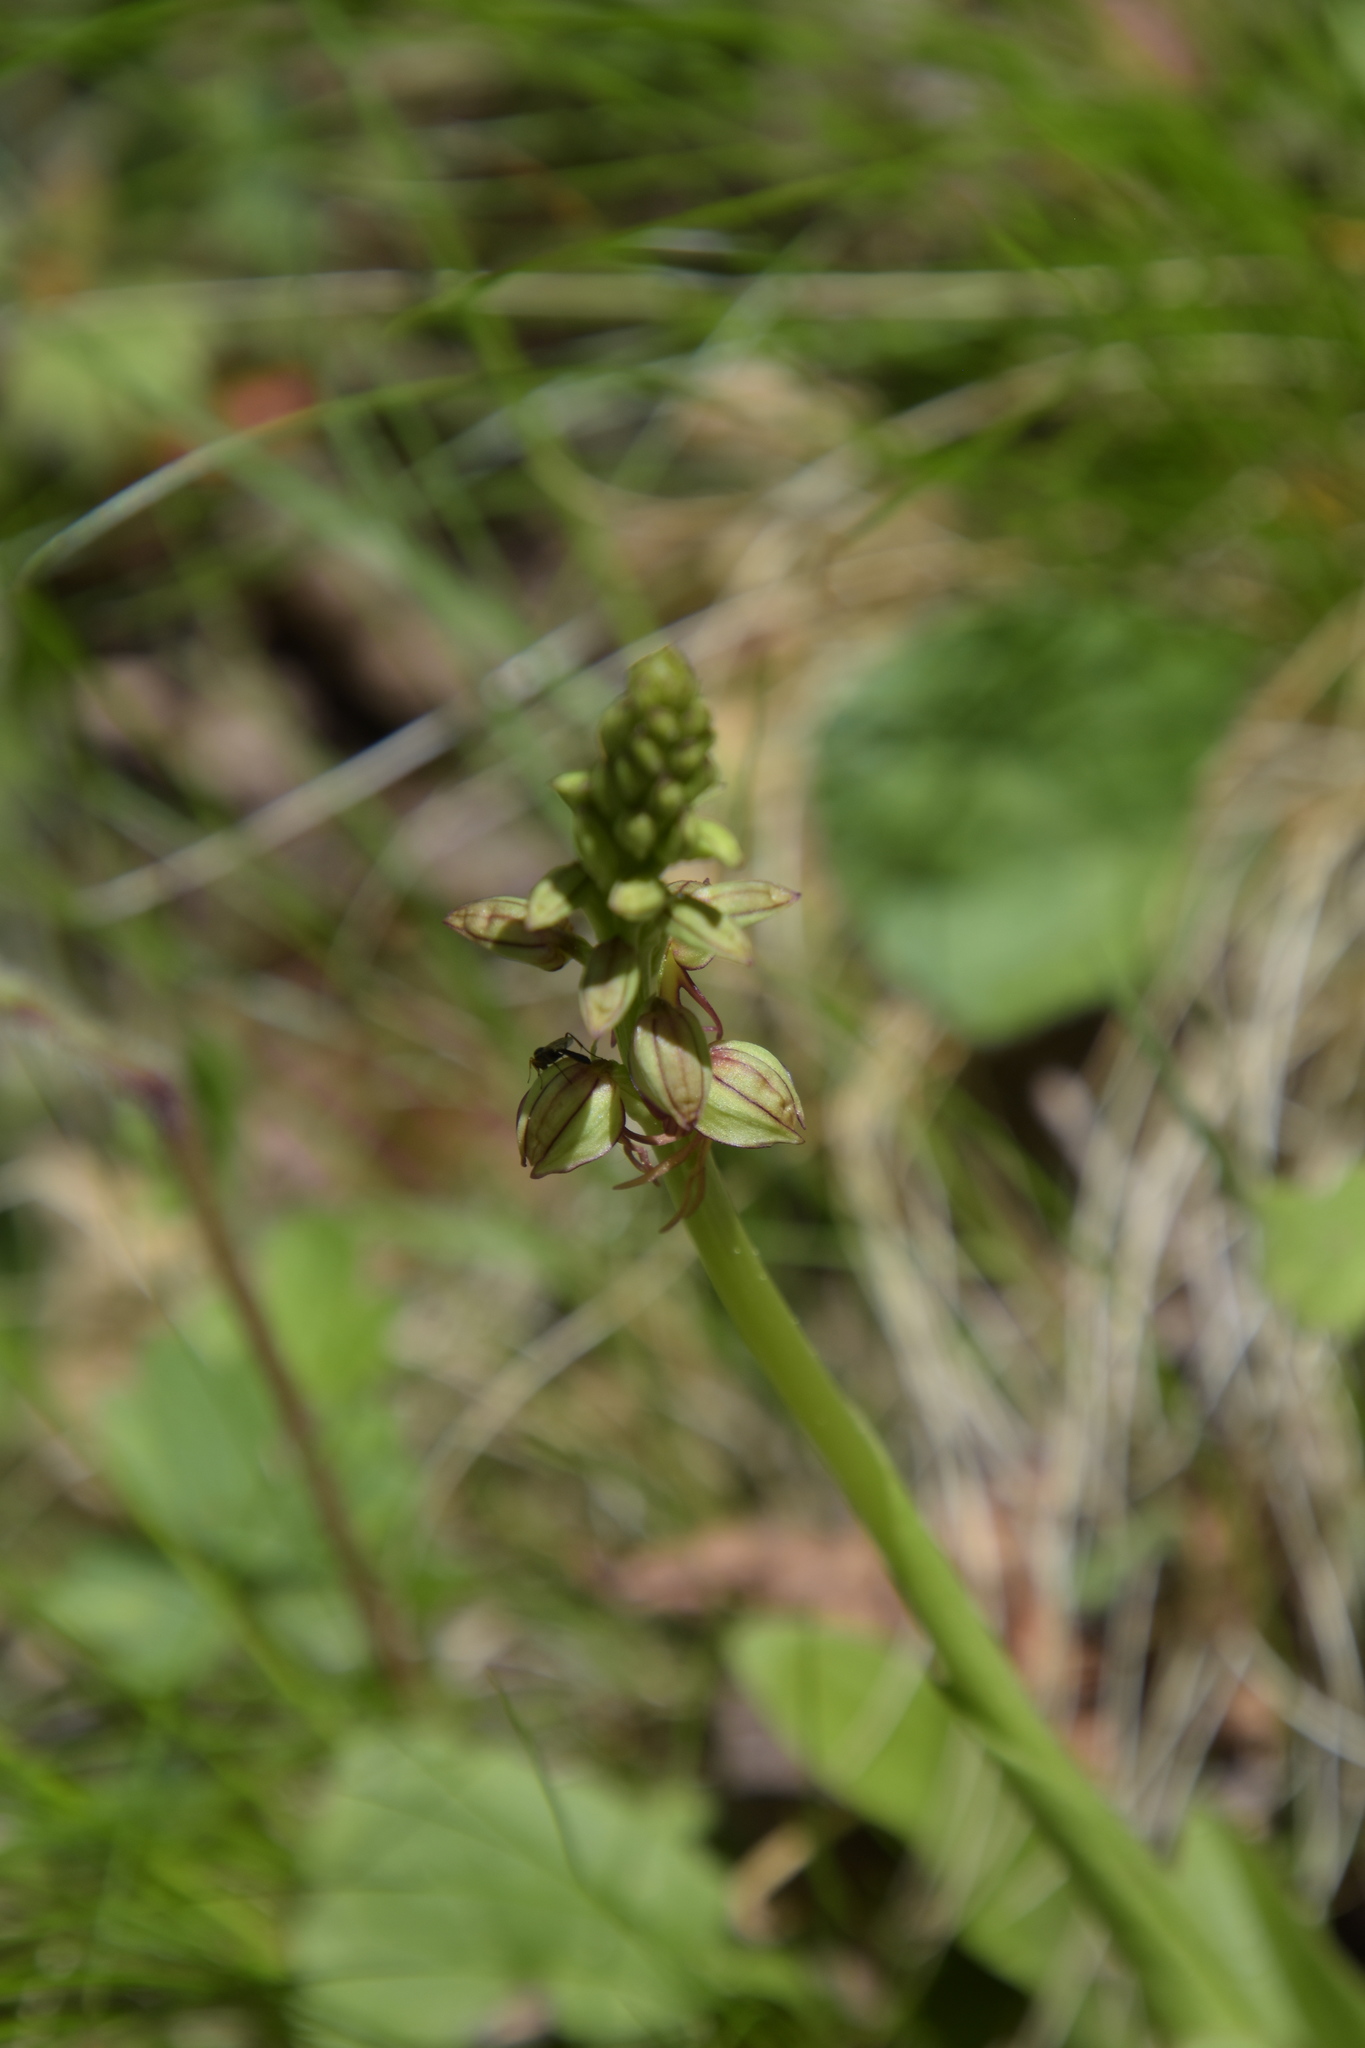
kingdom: Plantae
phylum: Tracheophyta
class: Liliopsida
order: Asparagales
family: Orchidaceae
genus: Orchis
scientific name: Orchis anthropophora
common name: Man orchid
